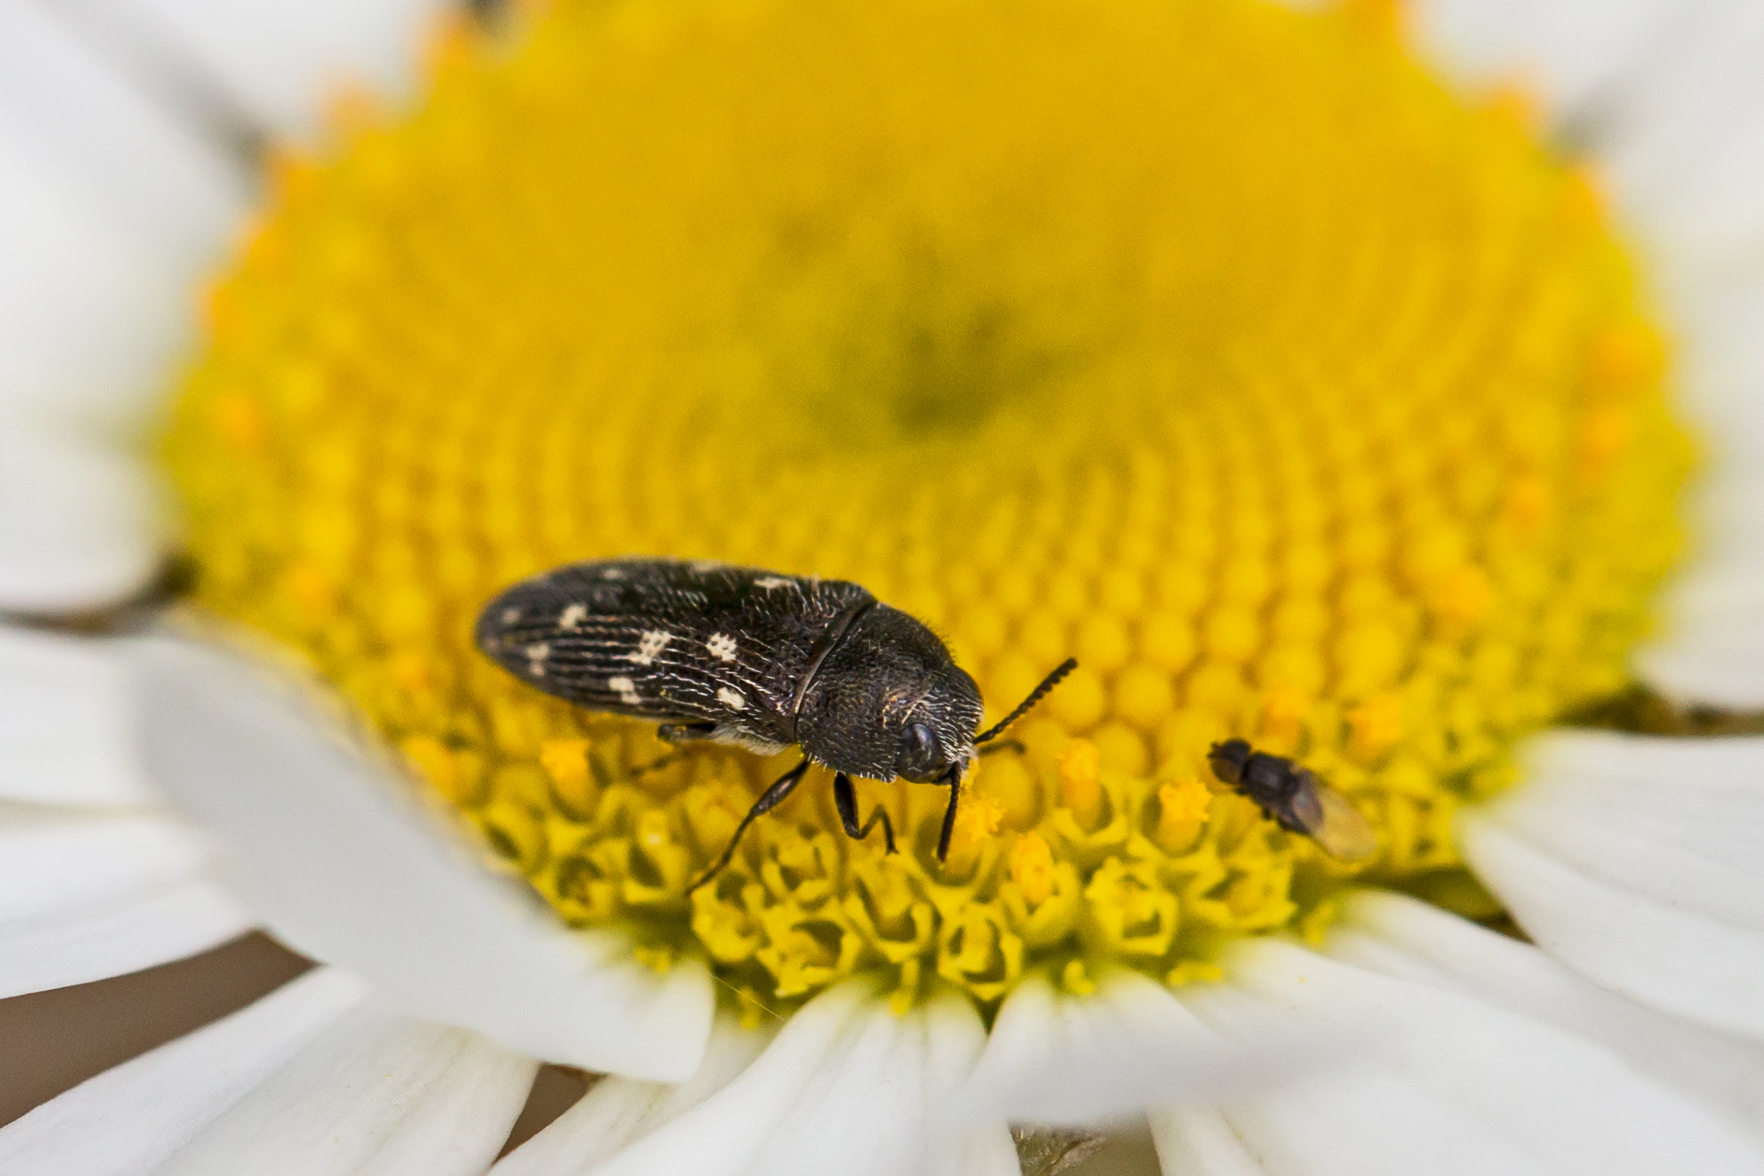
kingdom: Animalia
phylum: Arthropoda
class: Insecta
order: Coleoptera
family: Buprestidae
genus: Acmaeodera
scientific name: Acmaeodera tubulus
